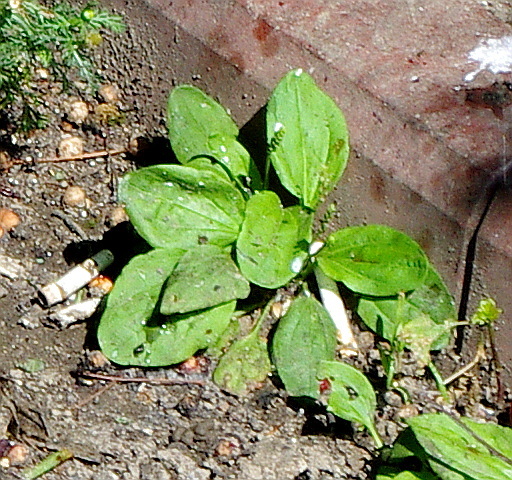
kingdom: Plantae
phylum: Tracheophyta
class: Magnoliopsida
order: Lamiales
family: Plantaginaceae
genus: Plantago
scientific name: Plantago major
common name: Common plantain
